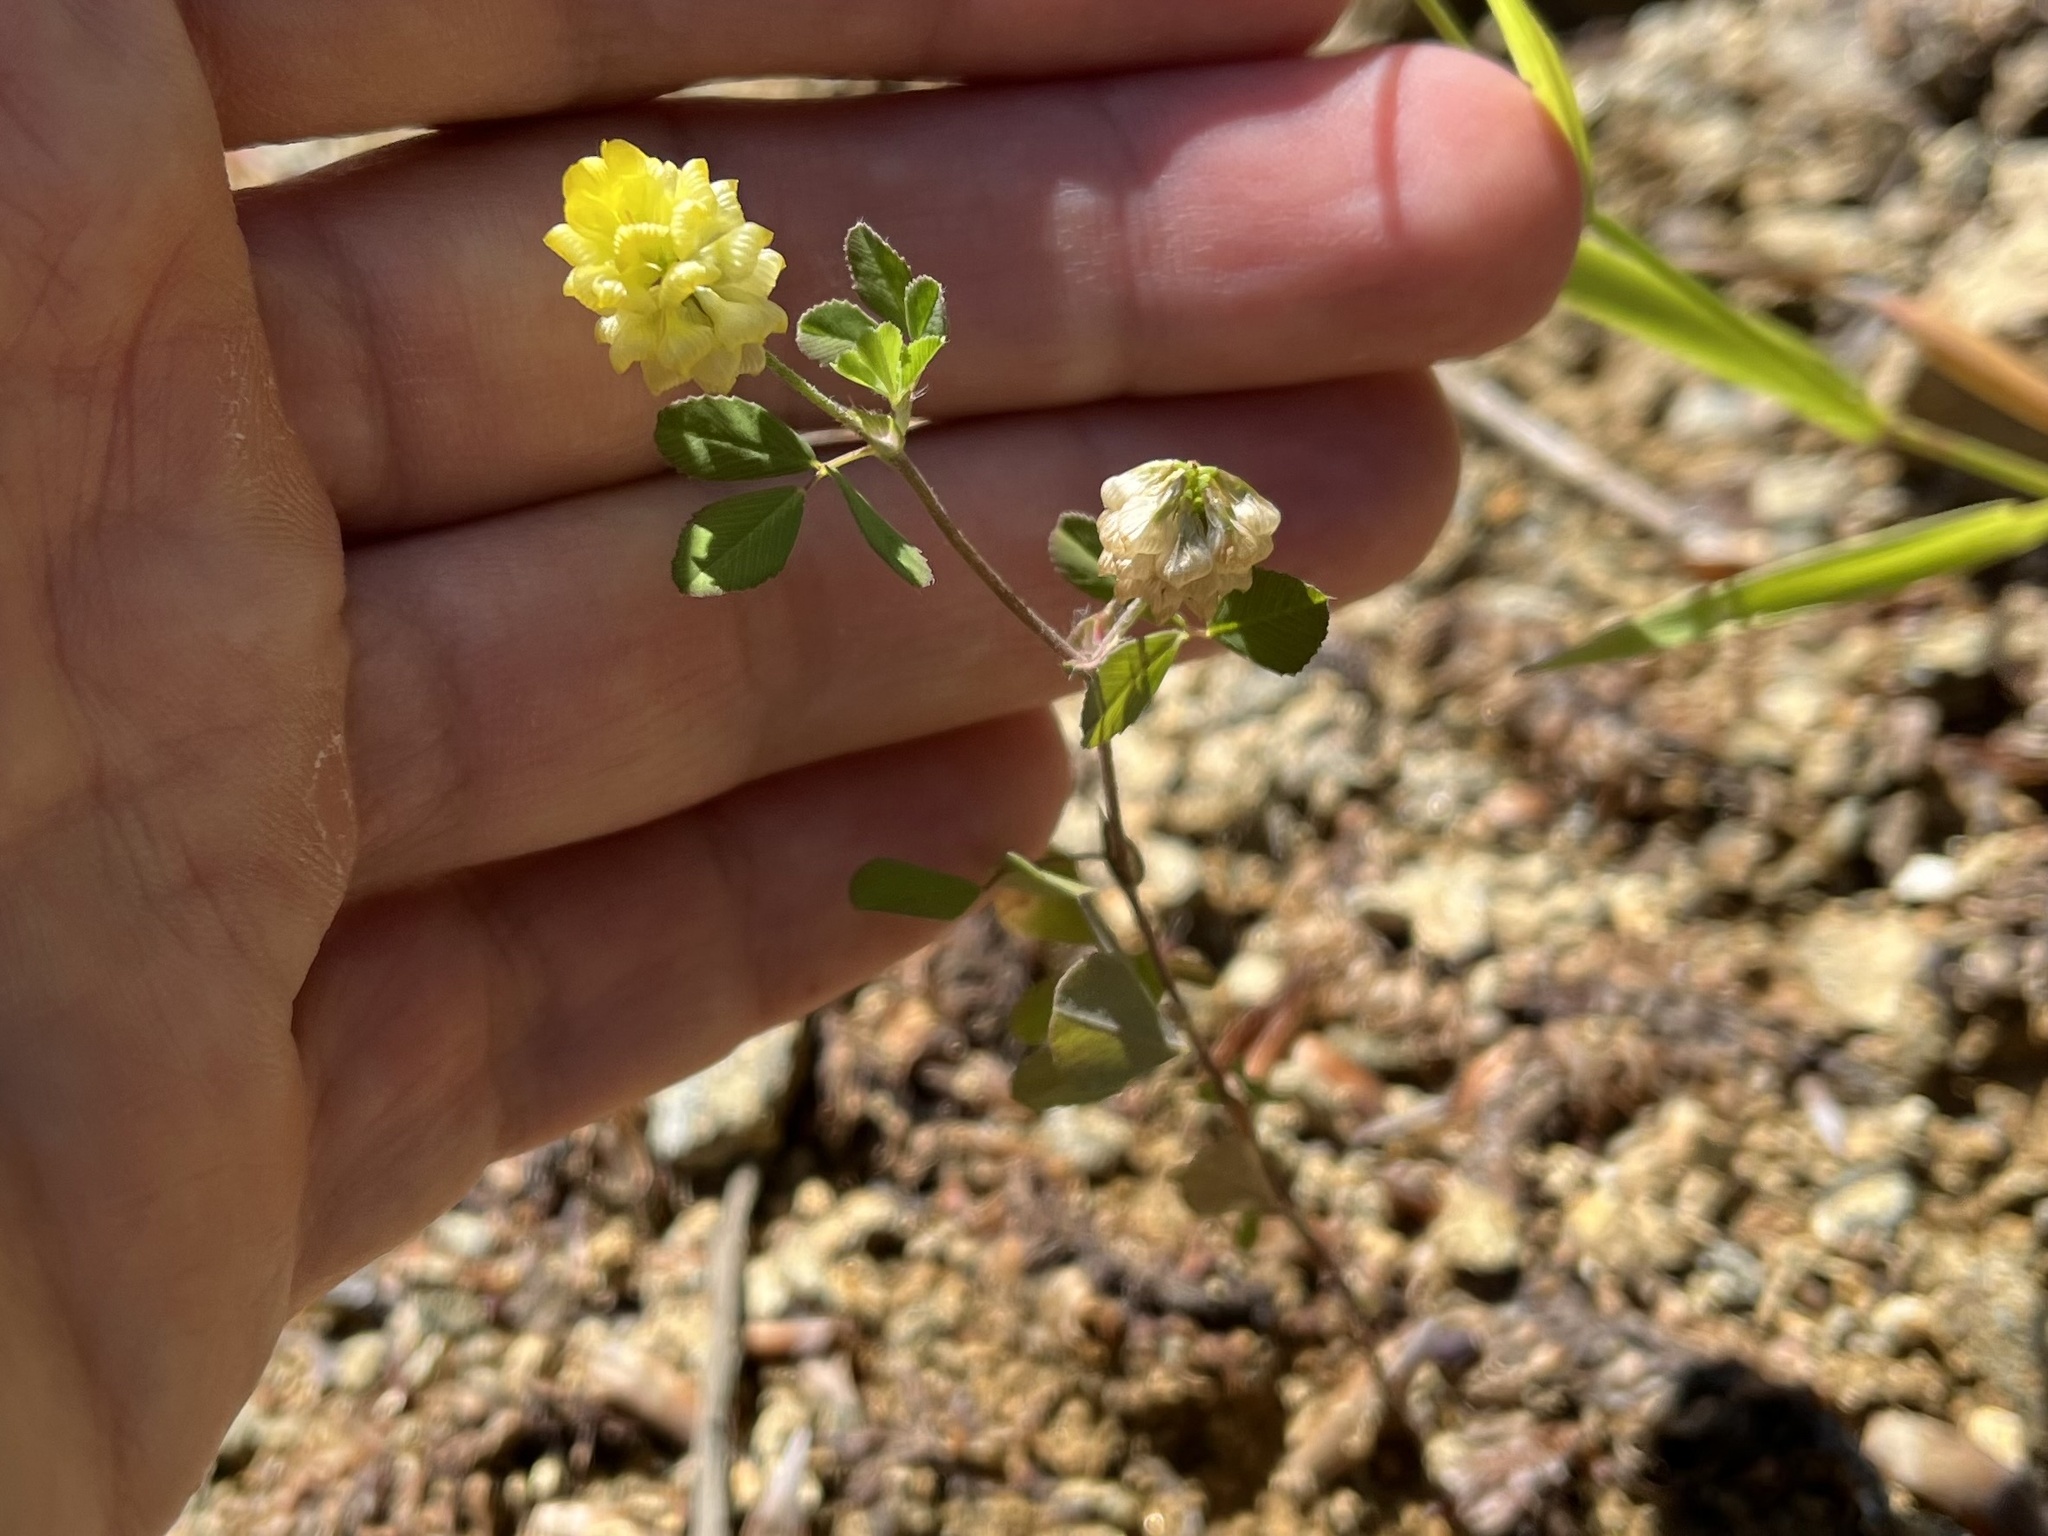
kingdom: Plantae
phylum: Tracheophyta
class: Magnoliopsida
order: Fabales
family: Fabaceae
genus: Trifolium
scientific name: Trifolium campestre
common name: Field clover
